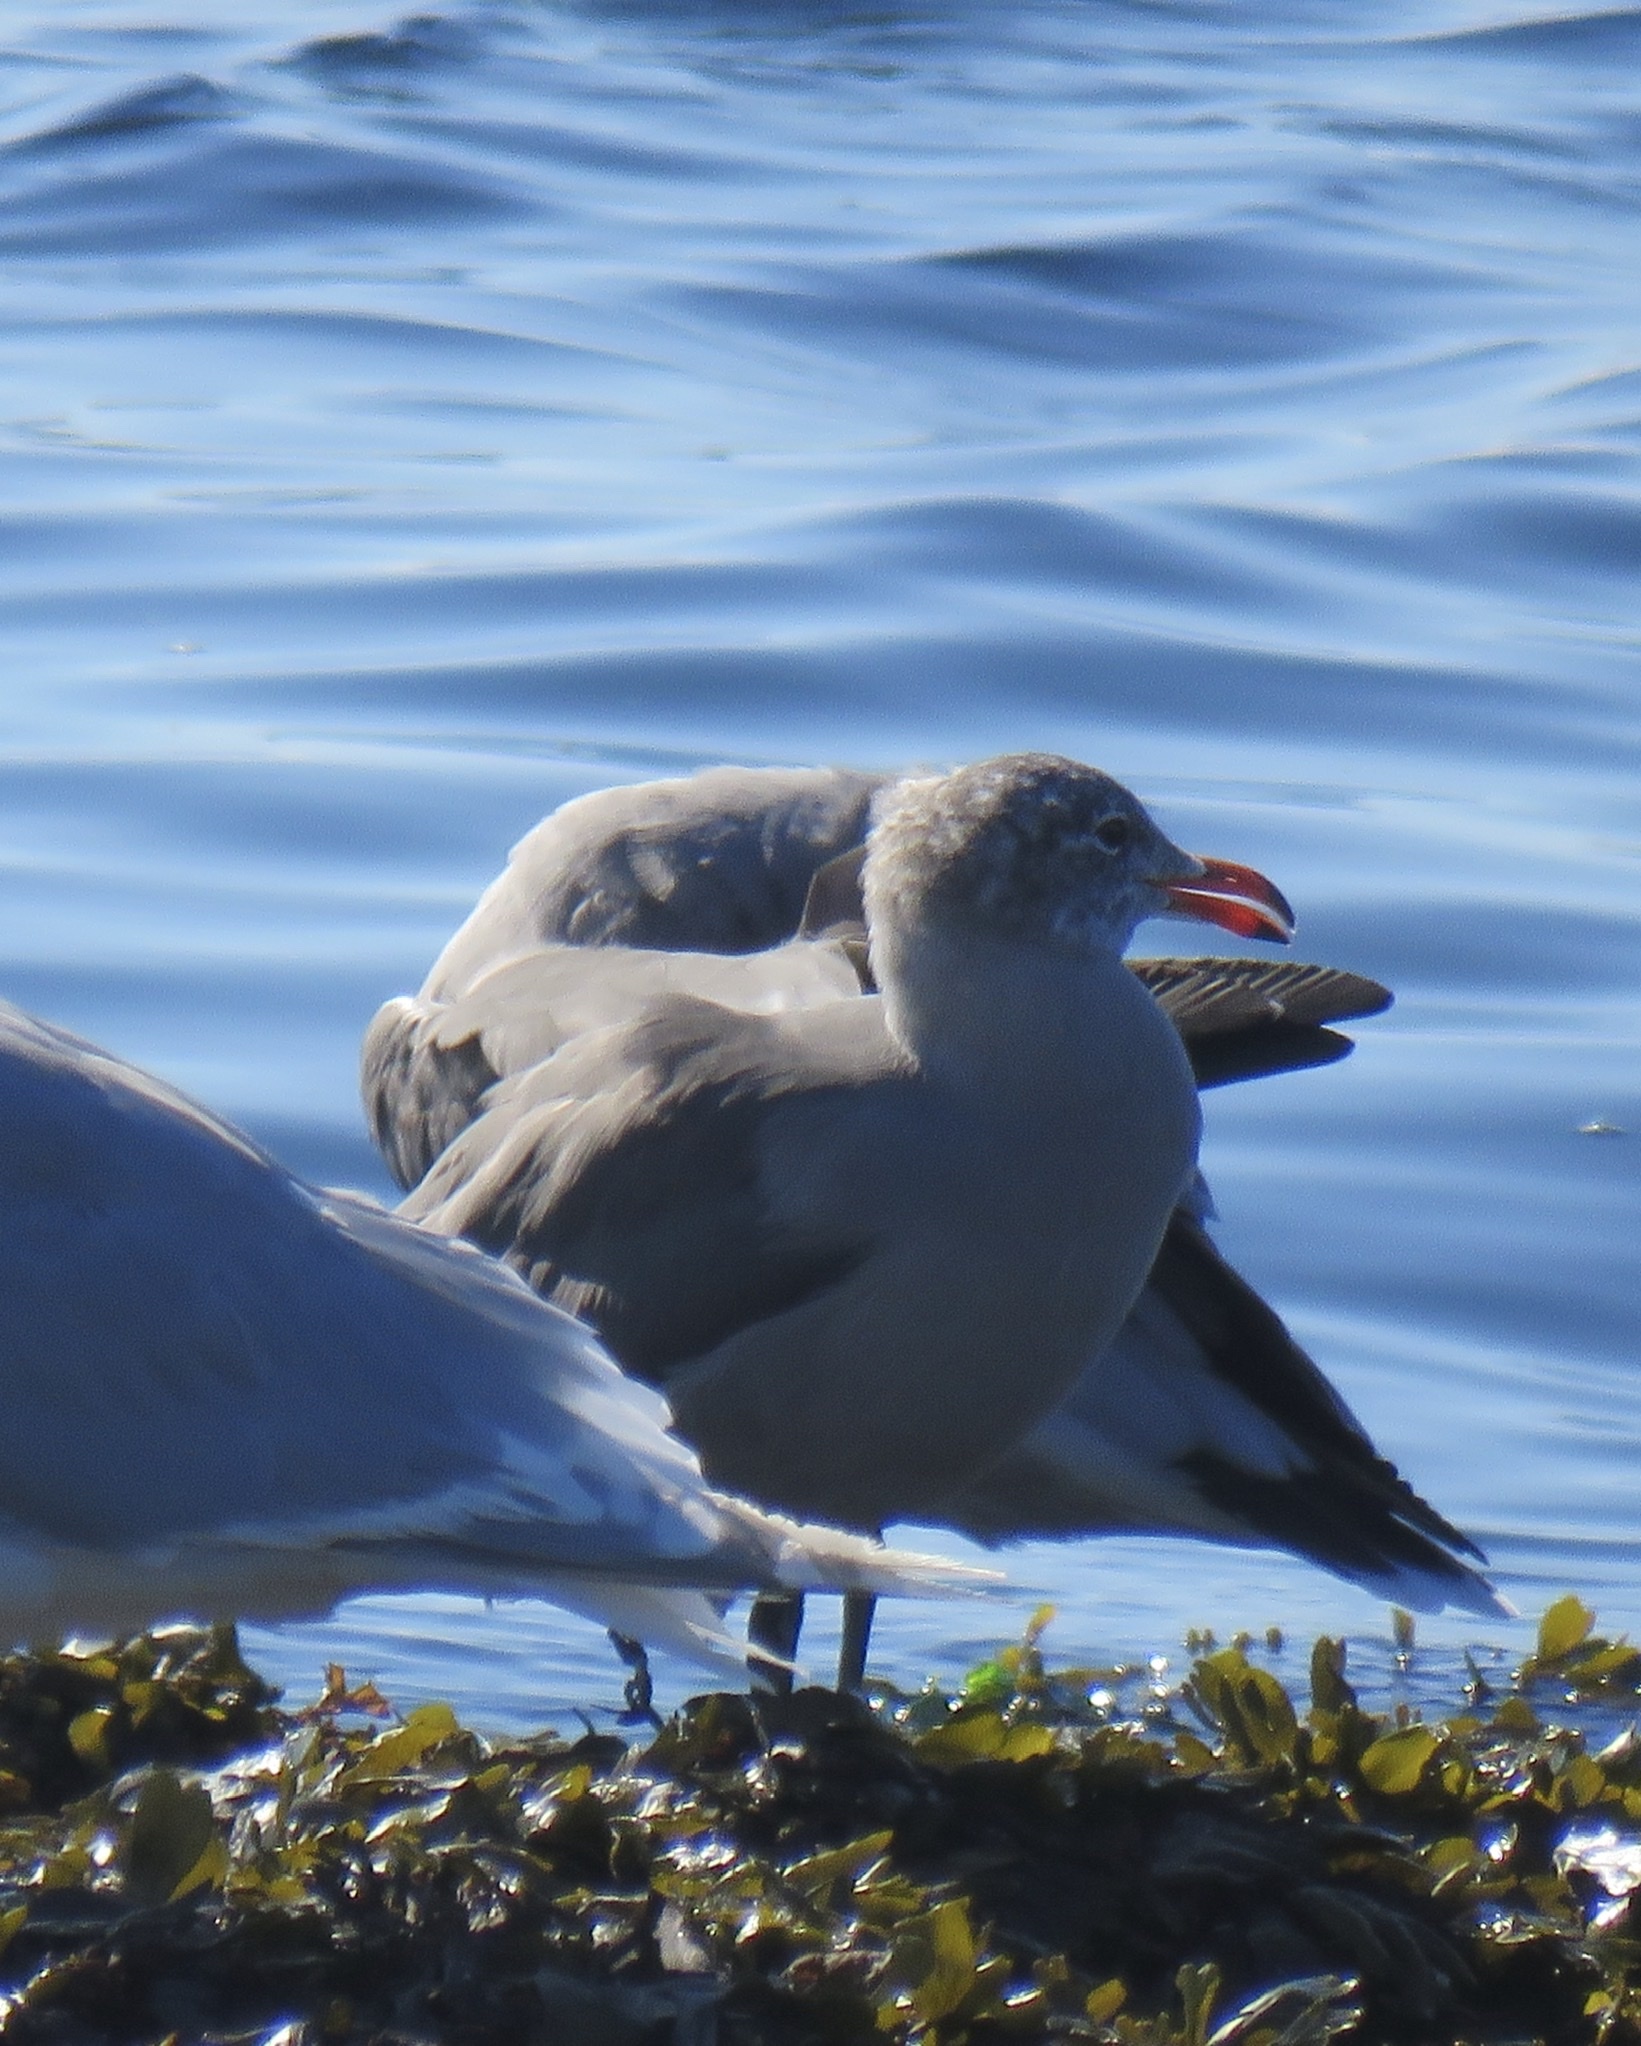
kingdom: Animalia
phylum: Chordata
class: Aves
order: Charadriiformes
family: Laridae
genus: Larus
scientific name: Larus heermanni
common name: Heermann's gull
